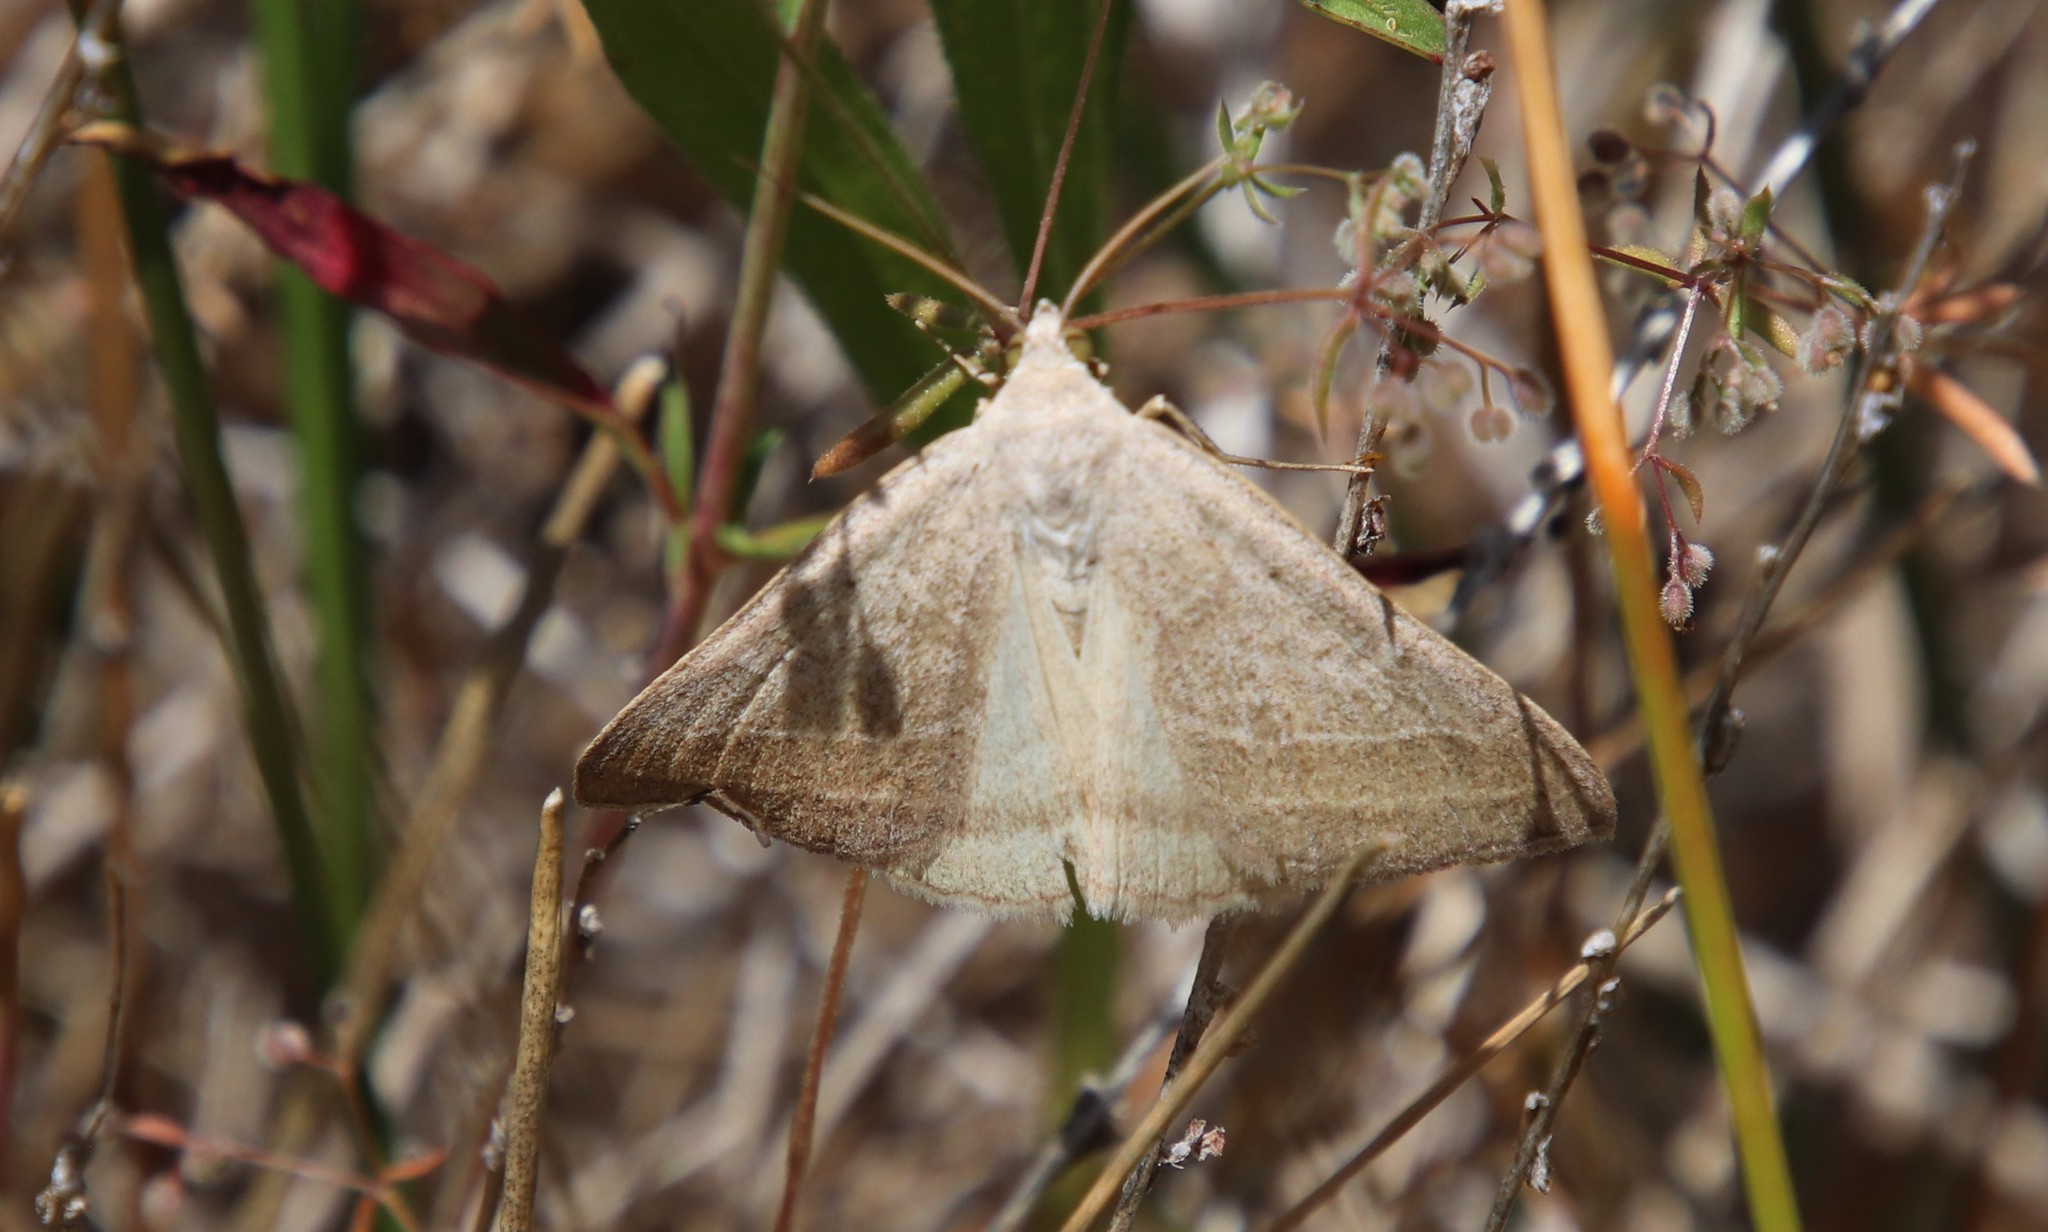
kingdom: Animalia
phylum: Arthropoda
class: Insecta
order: Lepidoptera
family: Erebidae
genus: Caenurgia
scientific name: Caenurgia togataria
